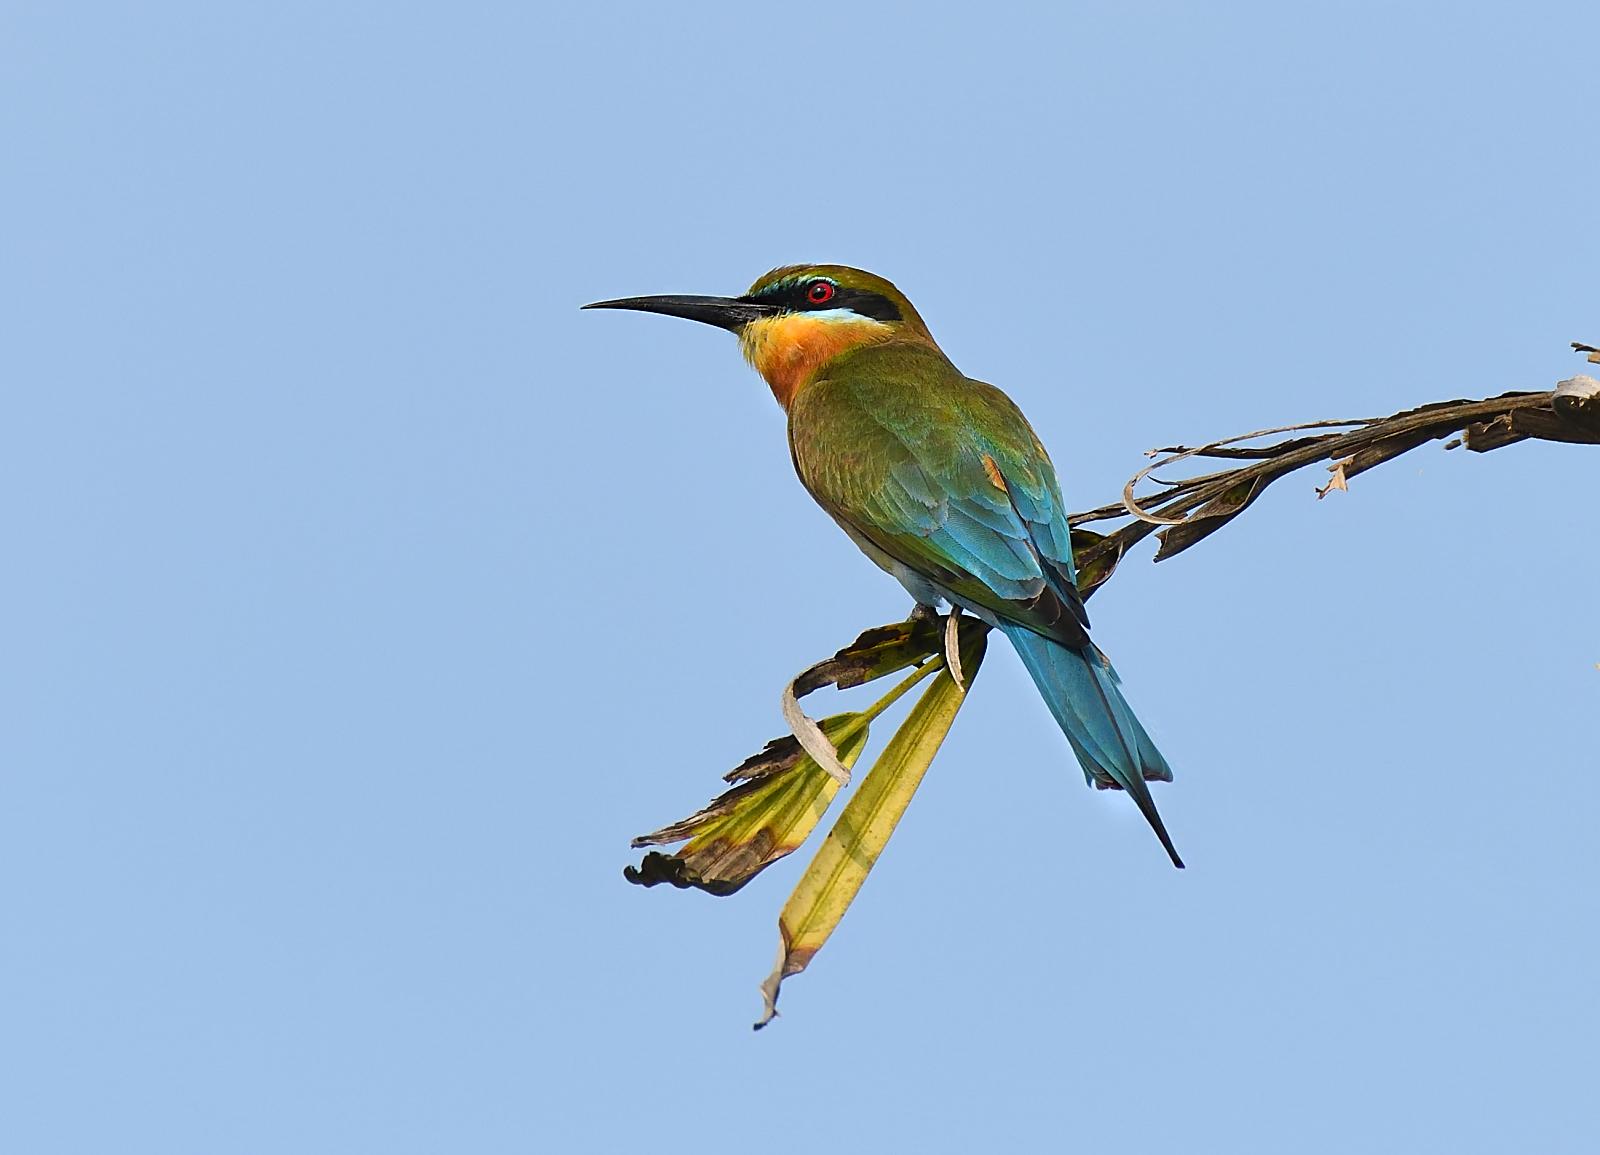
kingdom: Animalia
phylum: Chordata
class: Aves
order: Coraciiformes
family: Meropidae
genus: Merops
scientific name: Merops philippinus
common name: Blue-tailed bee-eater
